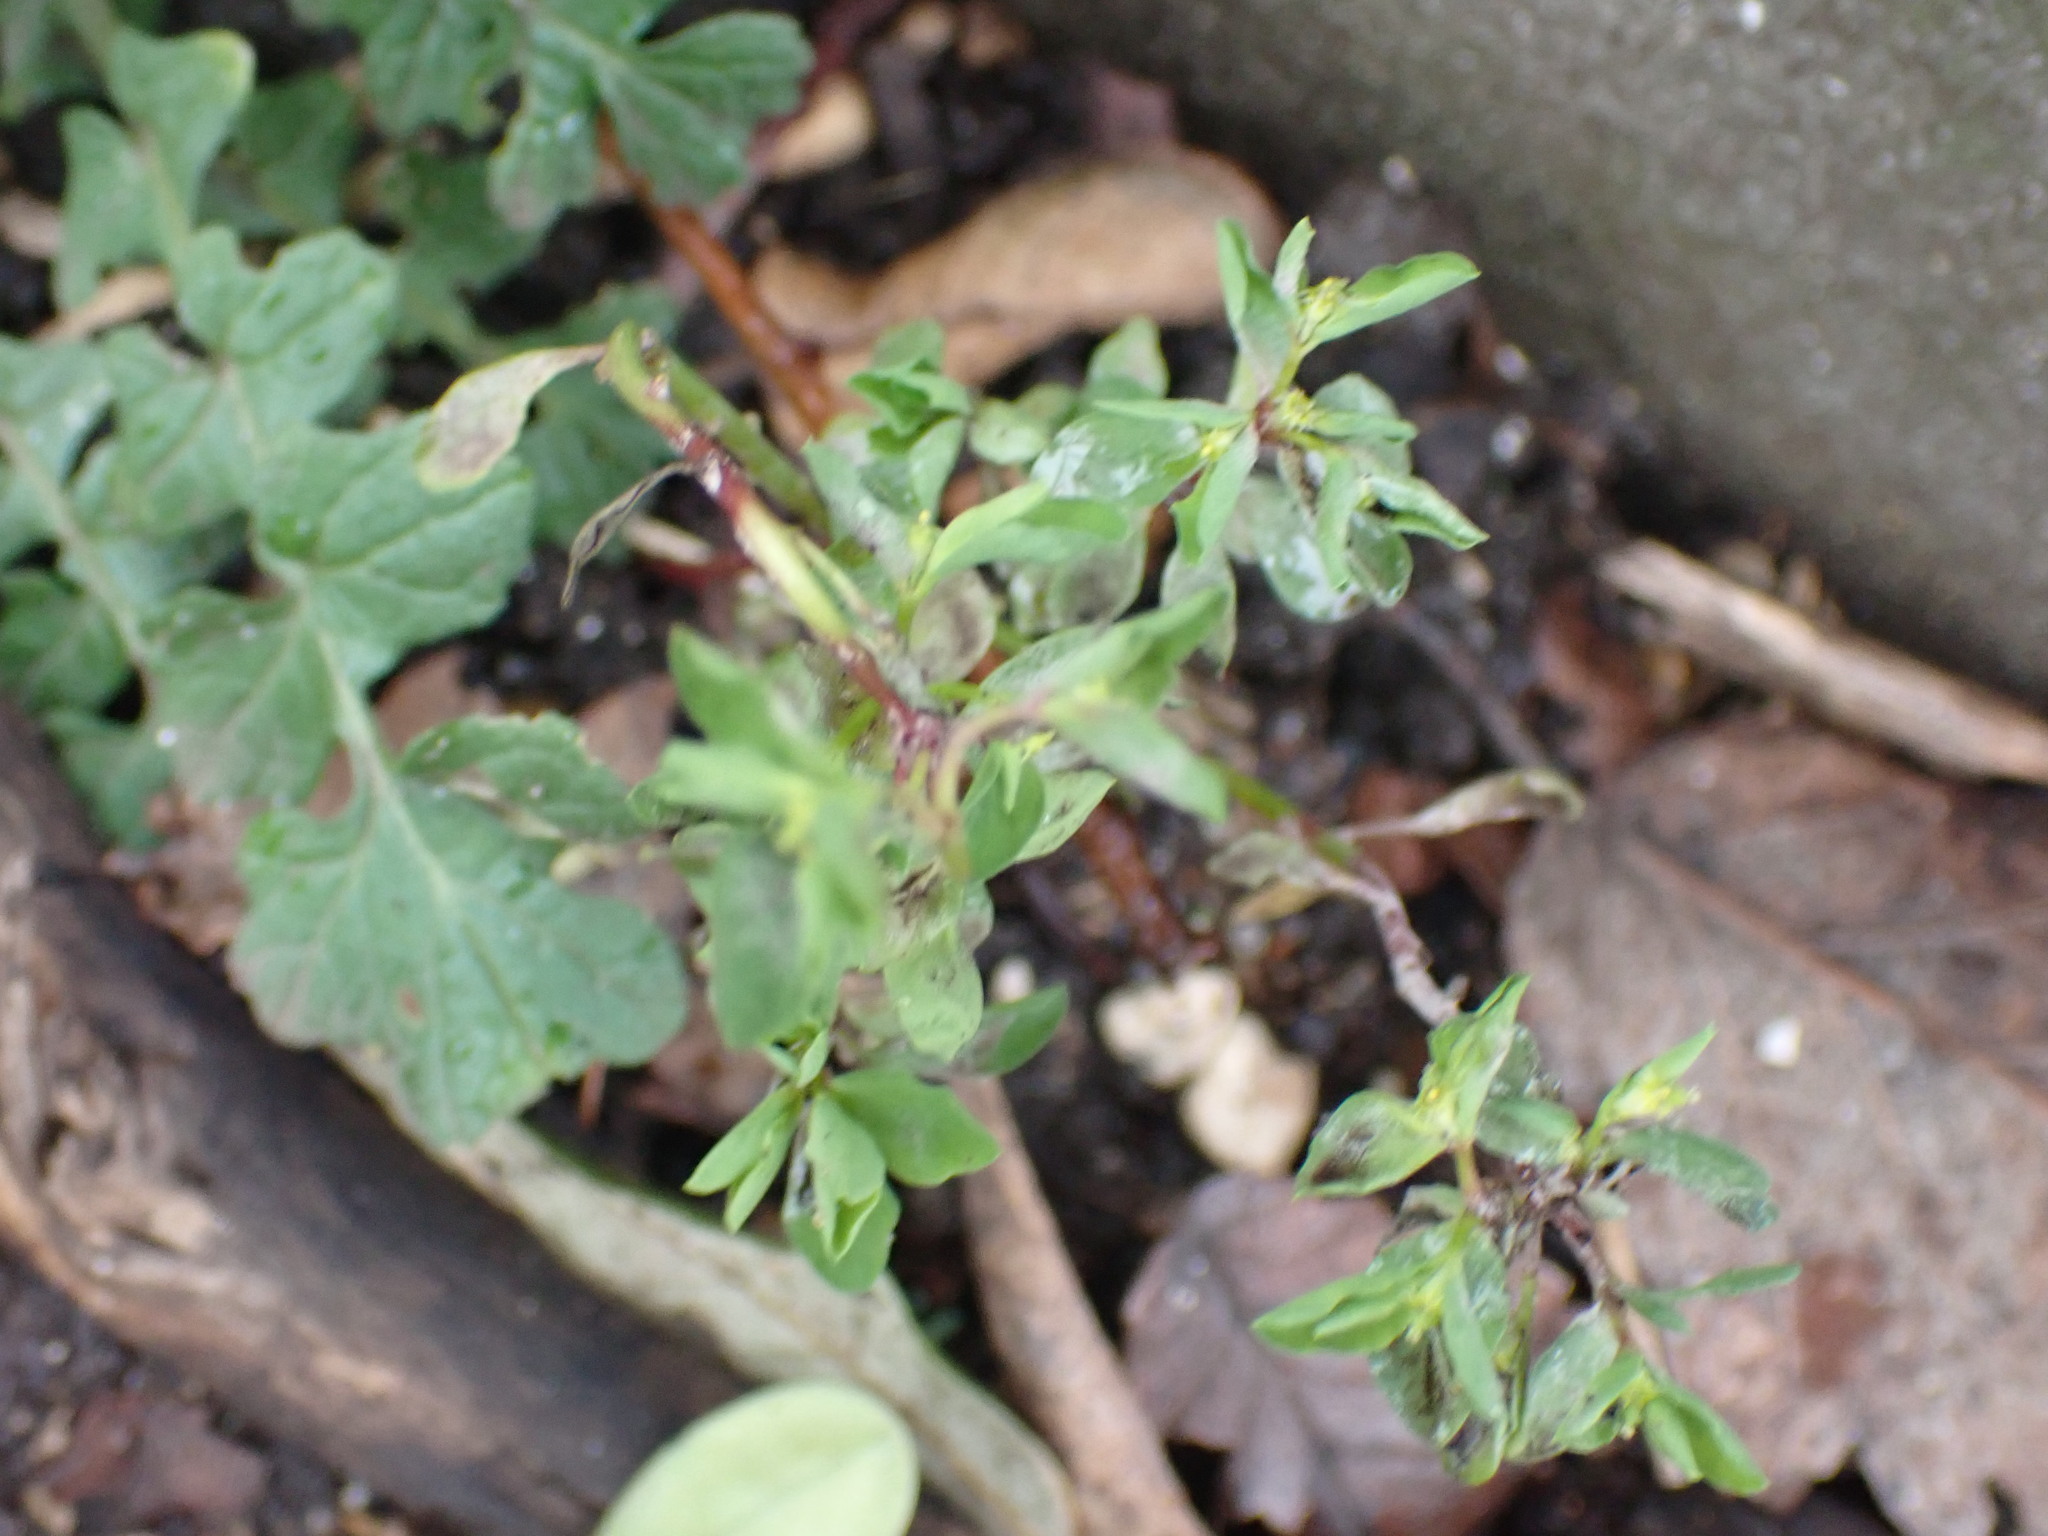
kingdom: Plantae
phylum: Tracheophyta
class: Magnoliopsida
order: Malpighiales
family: Euphorbiaceae
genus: Euphorbia
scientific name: Euphorbia peplus
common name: Petty spurge
